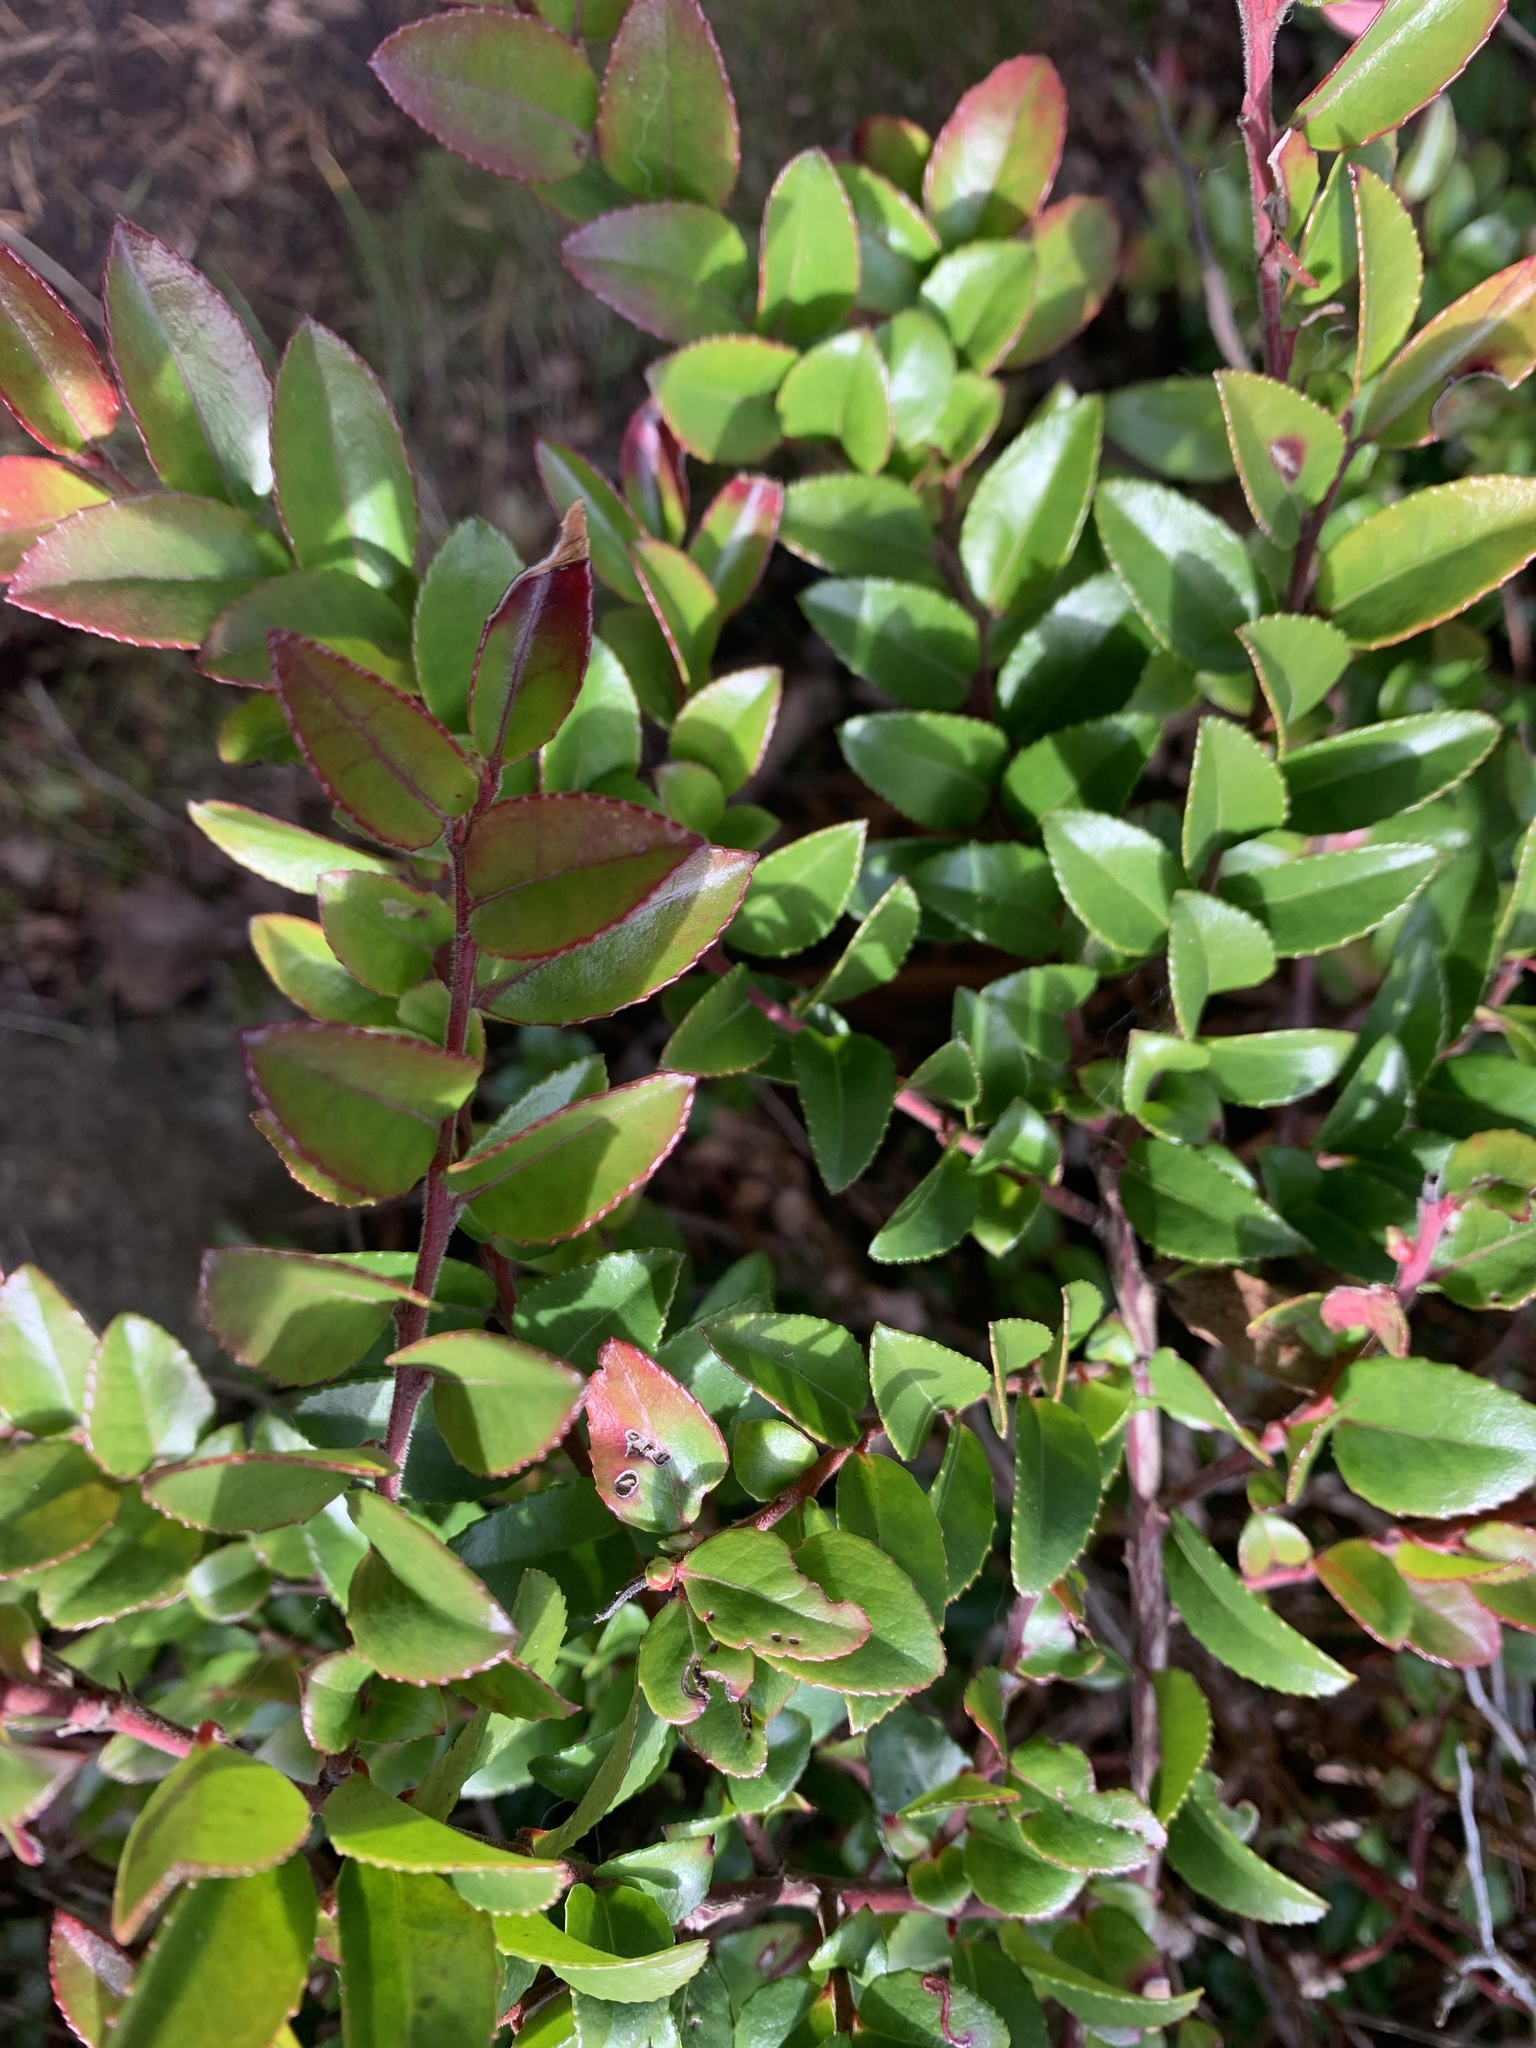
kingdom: Plantae
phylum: Tracheophyta
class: Magnoliopsida
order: Ericales
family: Ericaceae
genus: Vaccinium
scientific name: Vaccinium ovatum
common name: California-huckleberry
